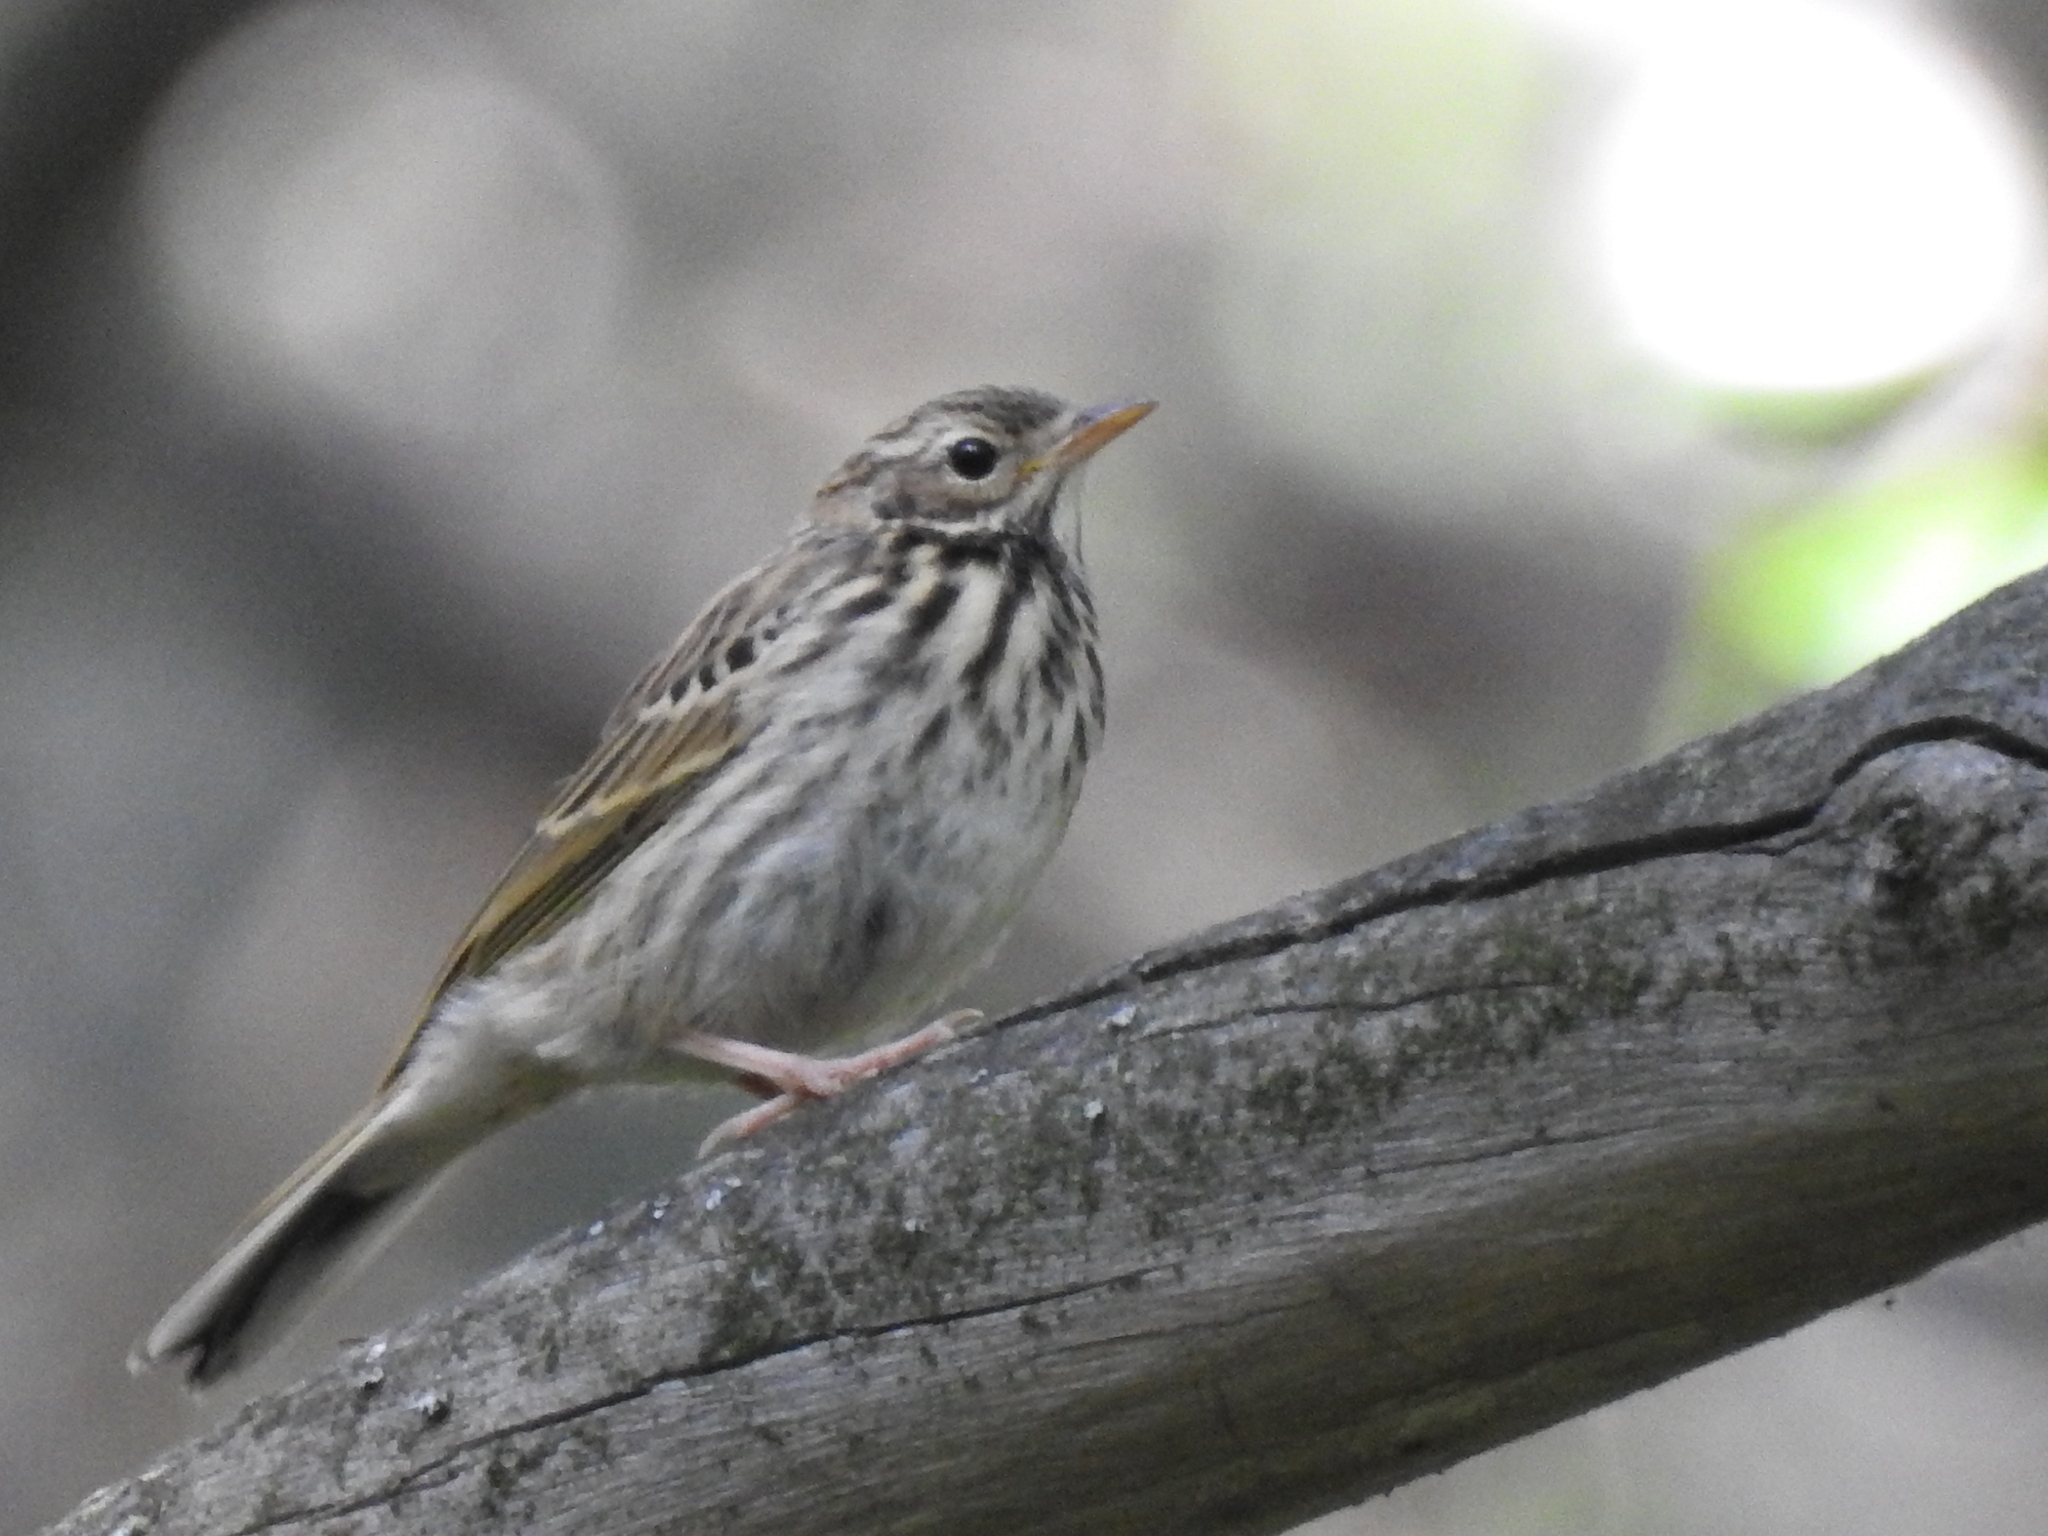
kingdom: Animalia
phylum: Chordata
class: Aves
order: Passeriformes
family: Motacillidae
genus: Anthus
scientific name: Anthus trivialis
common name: Tree pipit
